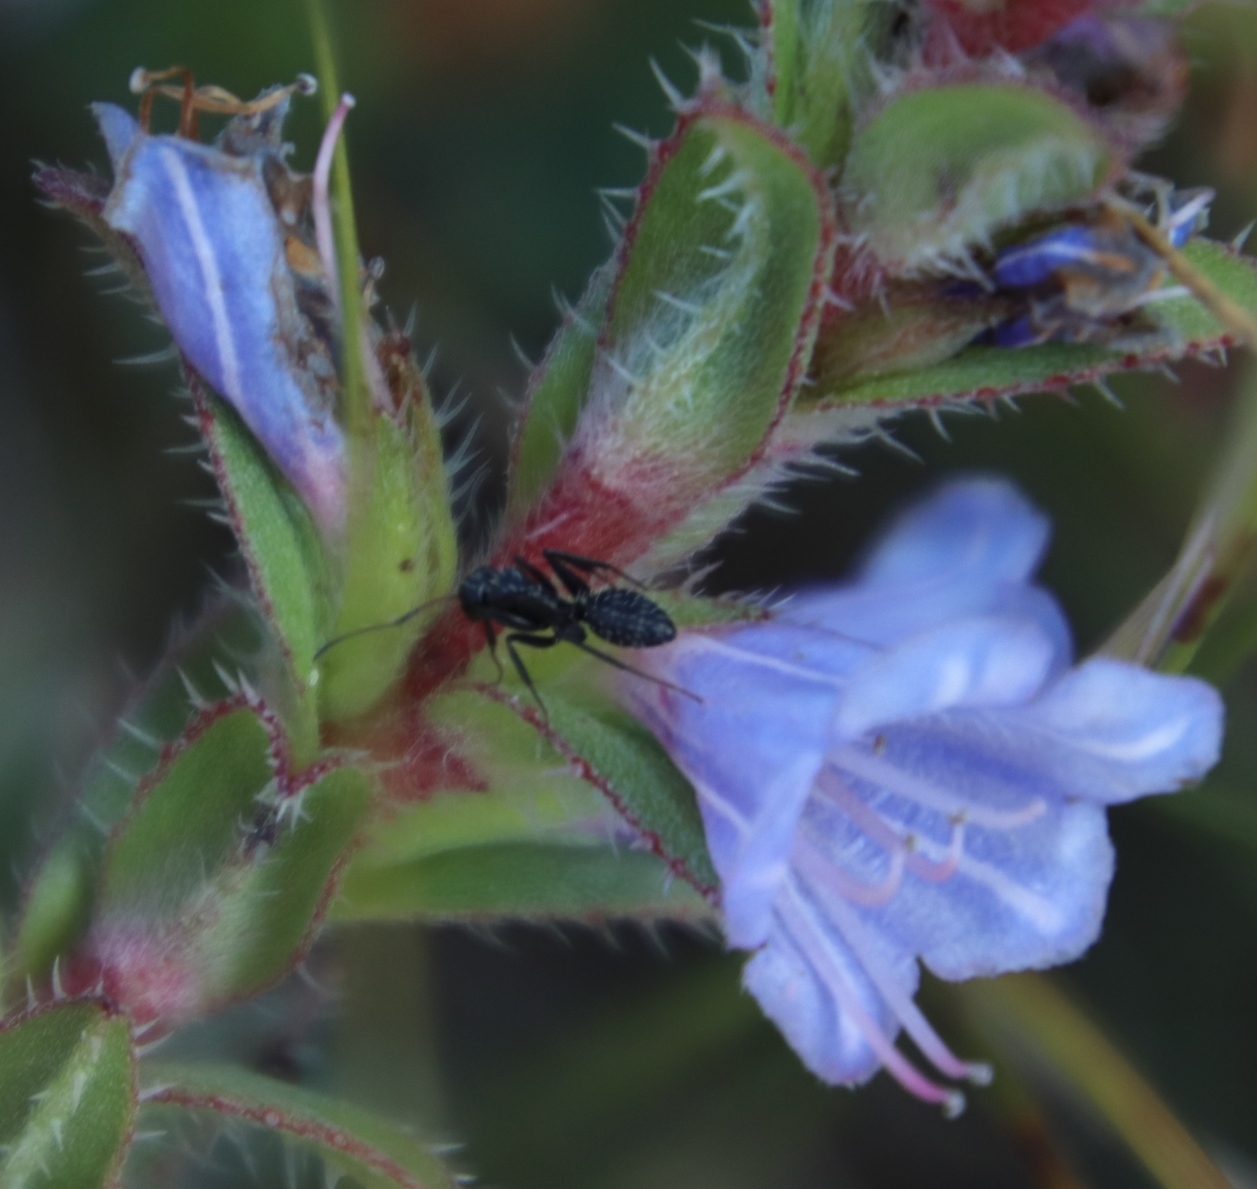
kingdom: Plantae
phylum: Tracheophyta
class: Magnoliopsida
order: Boraginales
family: Boraginaceae
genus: Lobostemon
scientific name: Lobostemon argenteus
